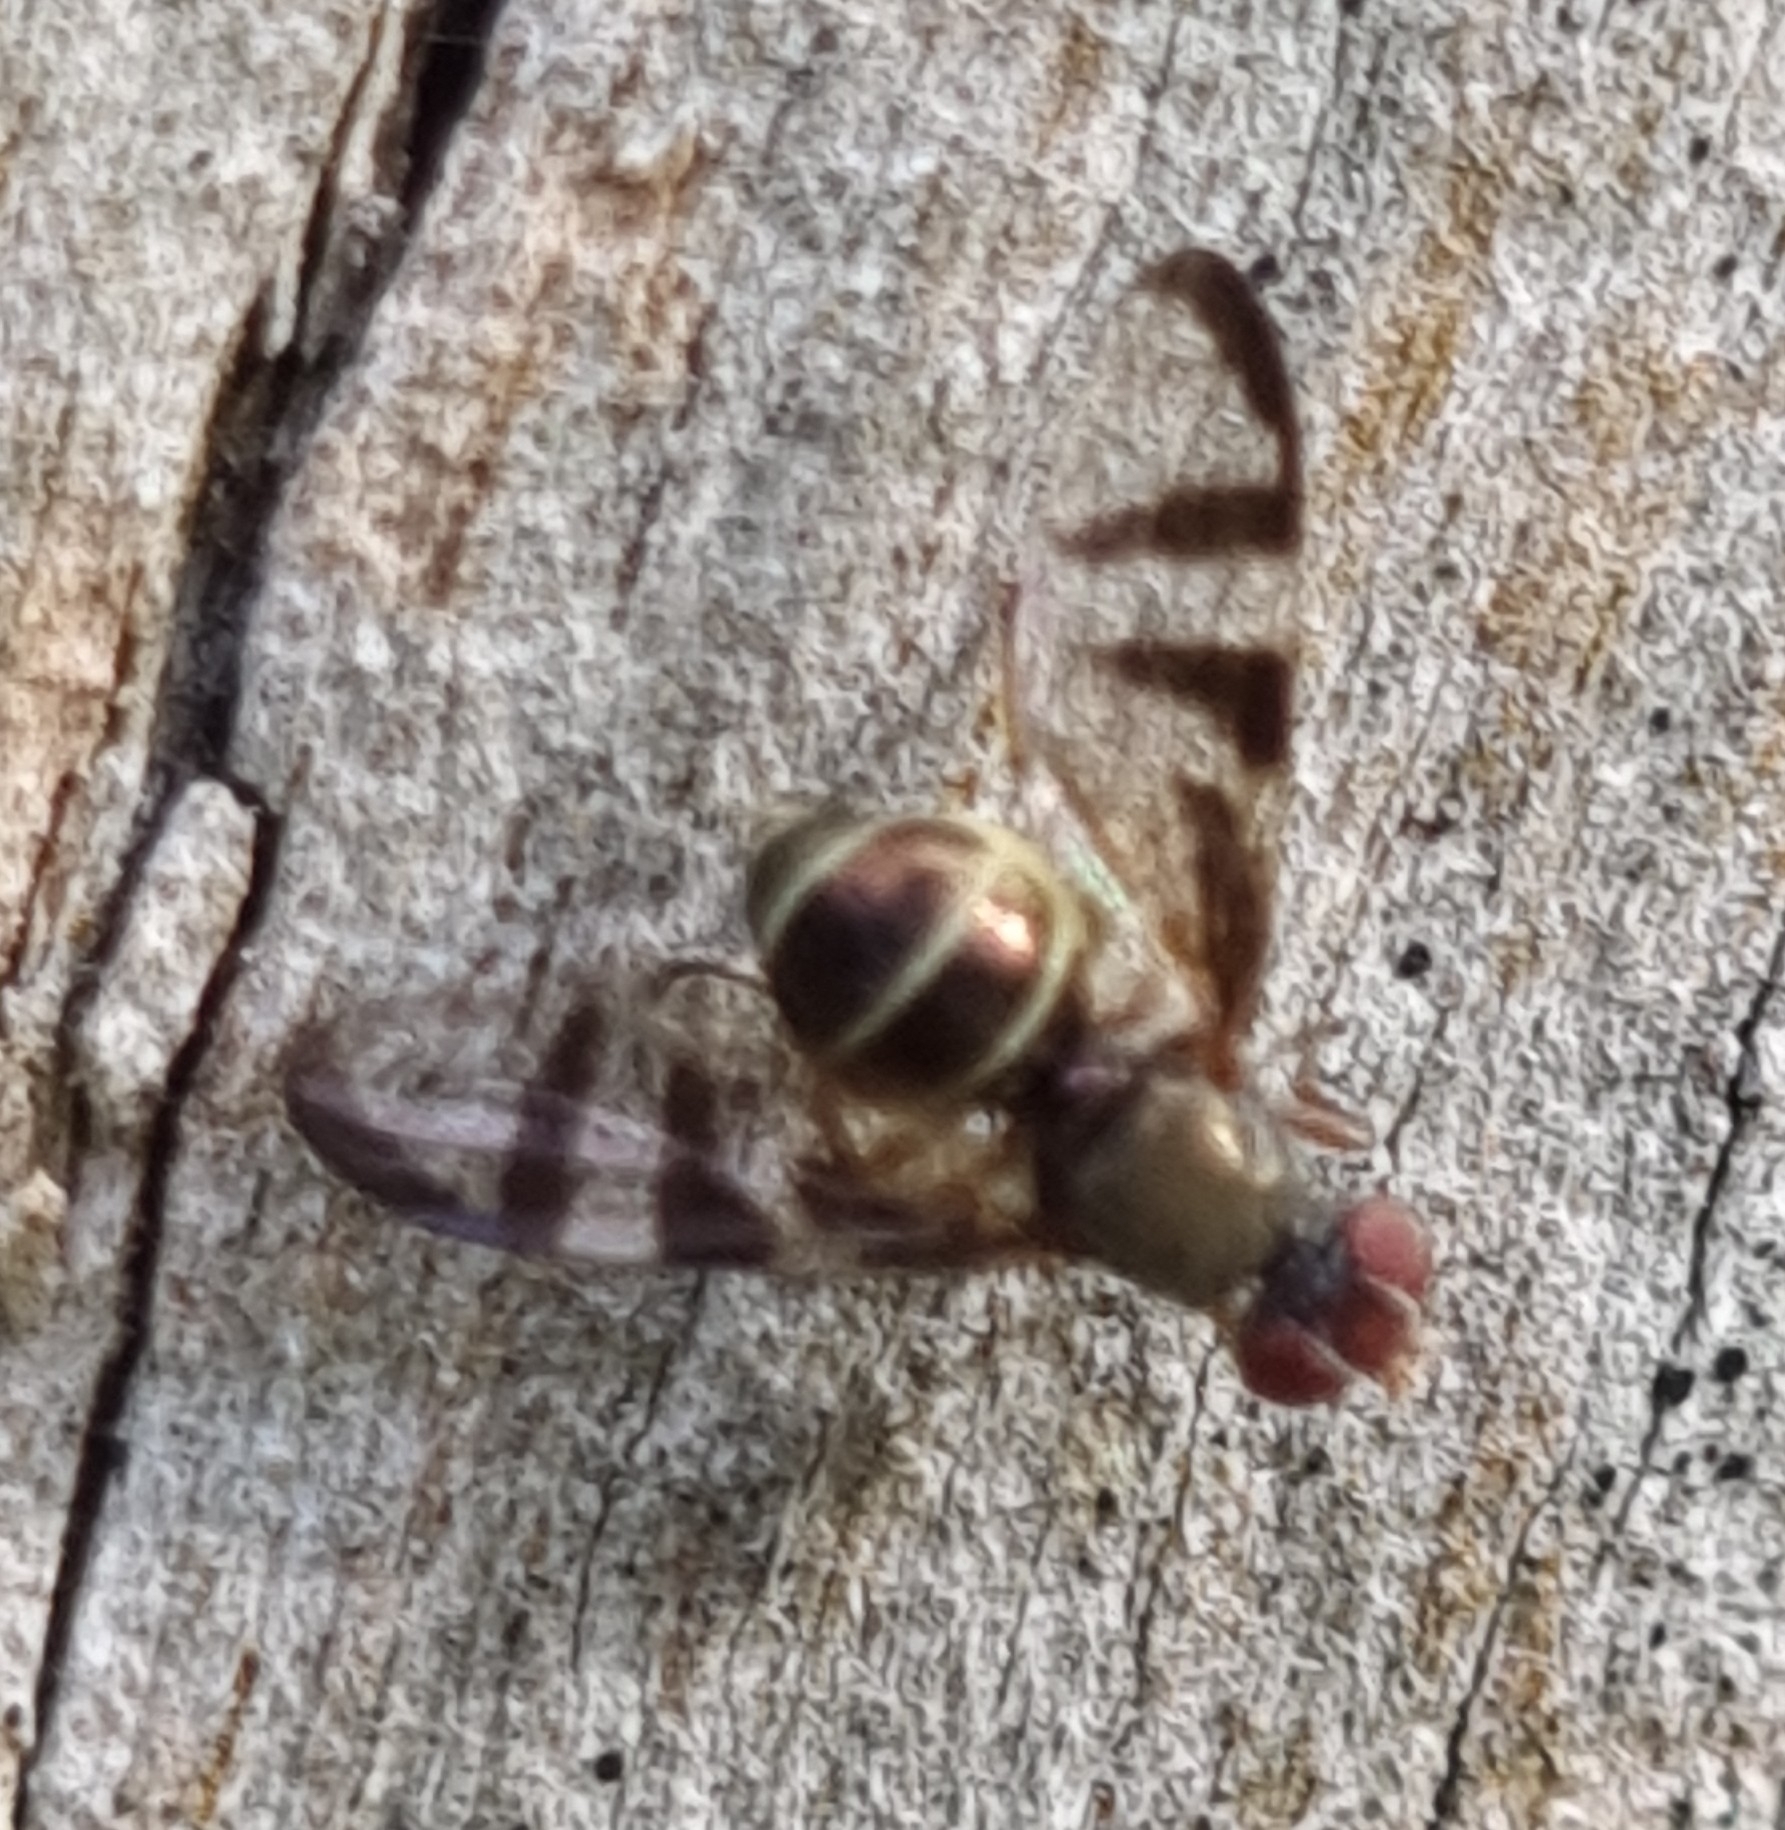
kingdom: Animalia
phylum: Arthropoda
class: Insecta
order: Diptera
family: Platystomatidae
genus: Rivellia
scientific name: Rivellia
